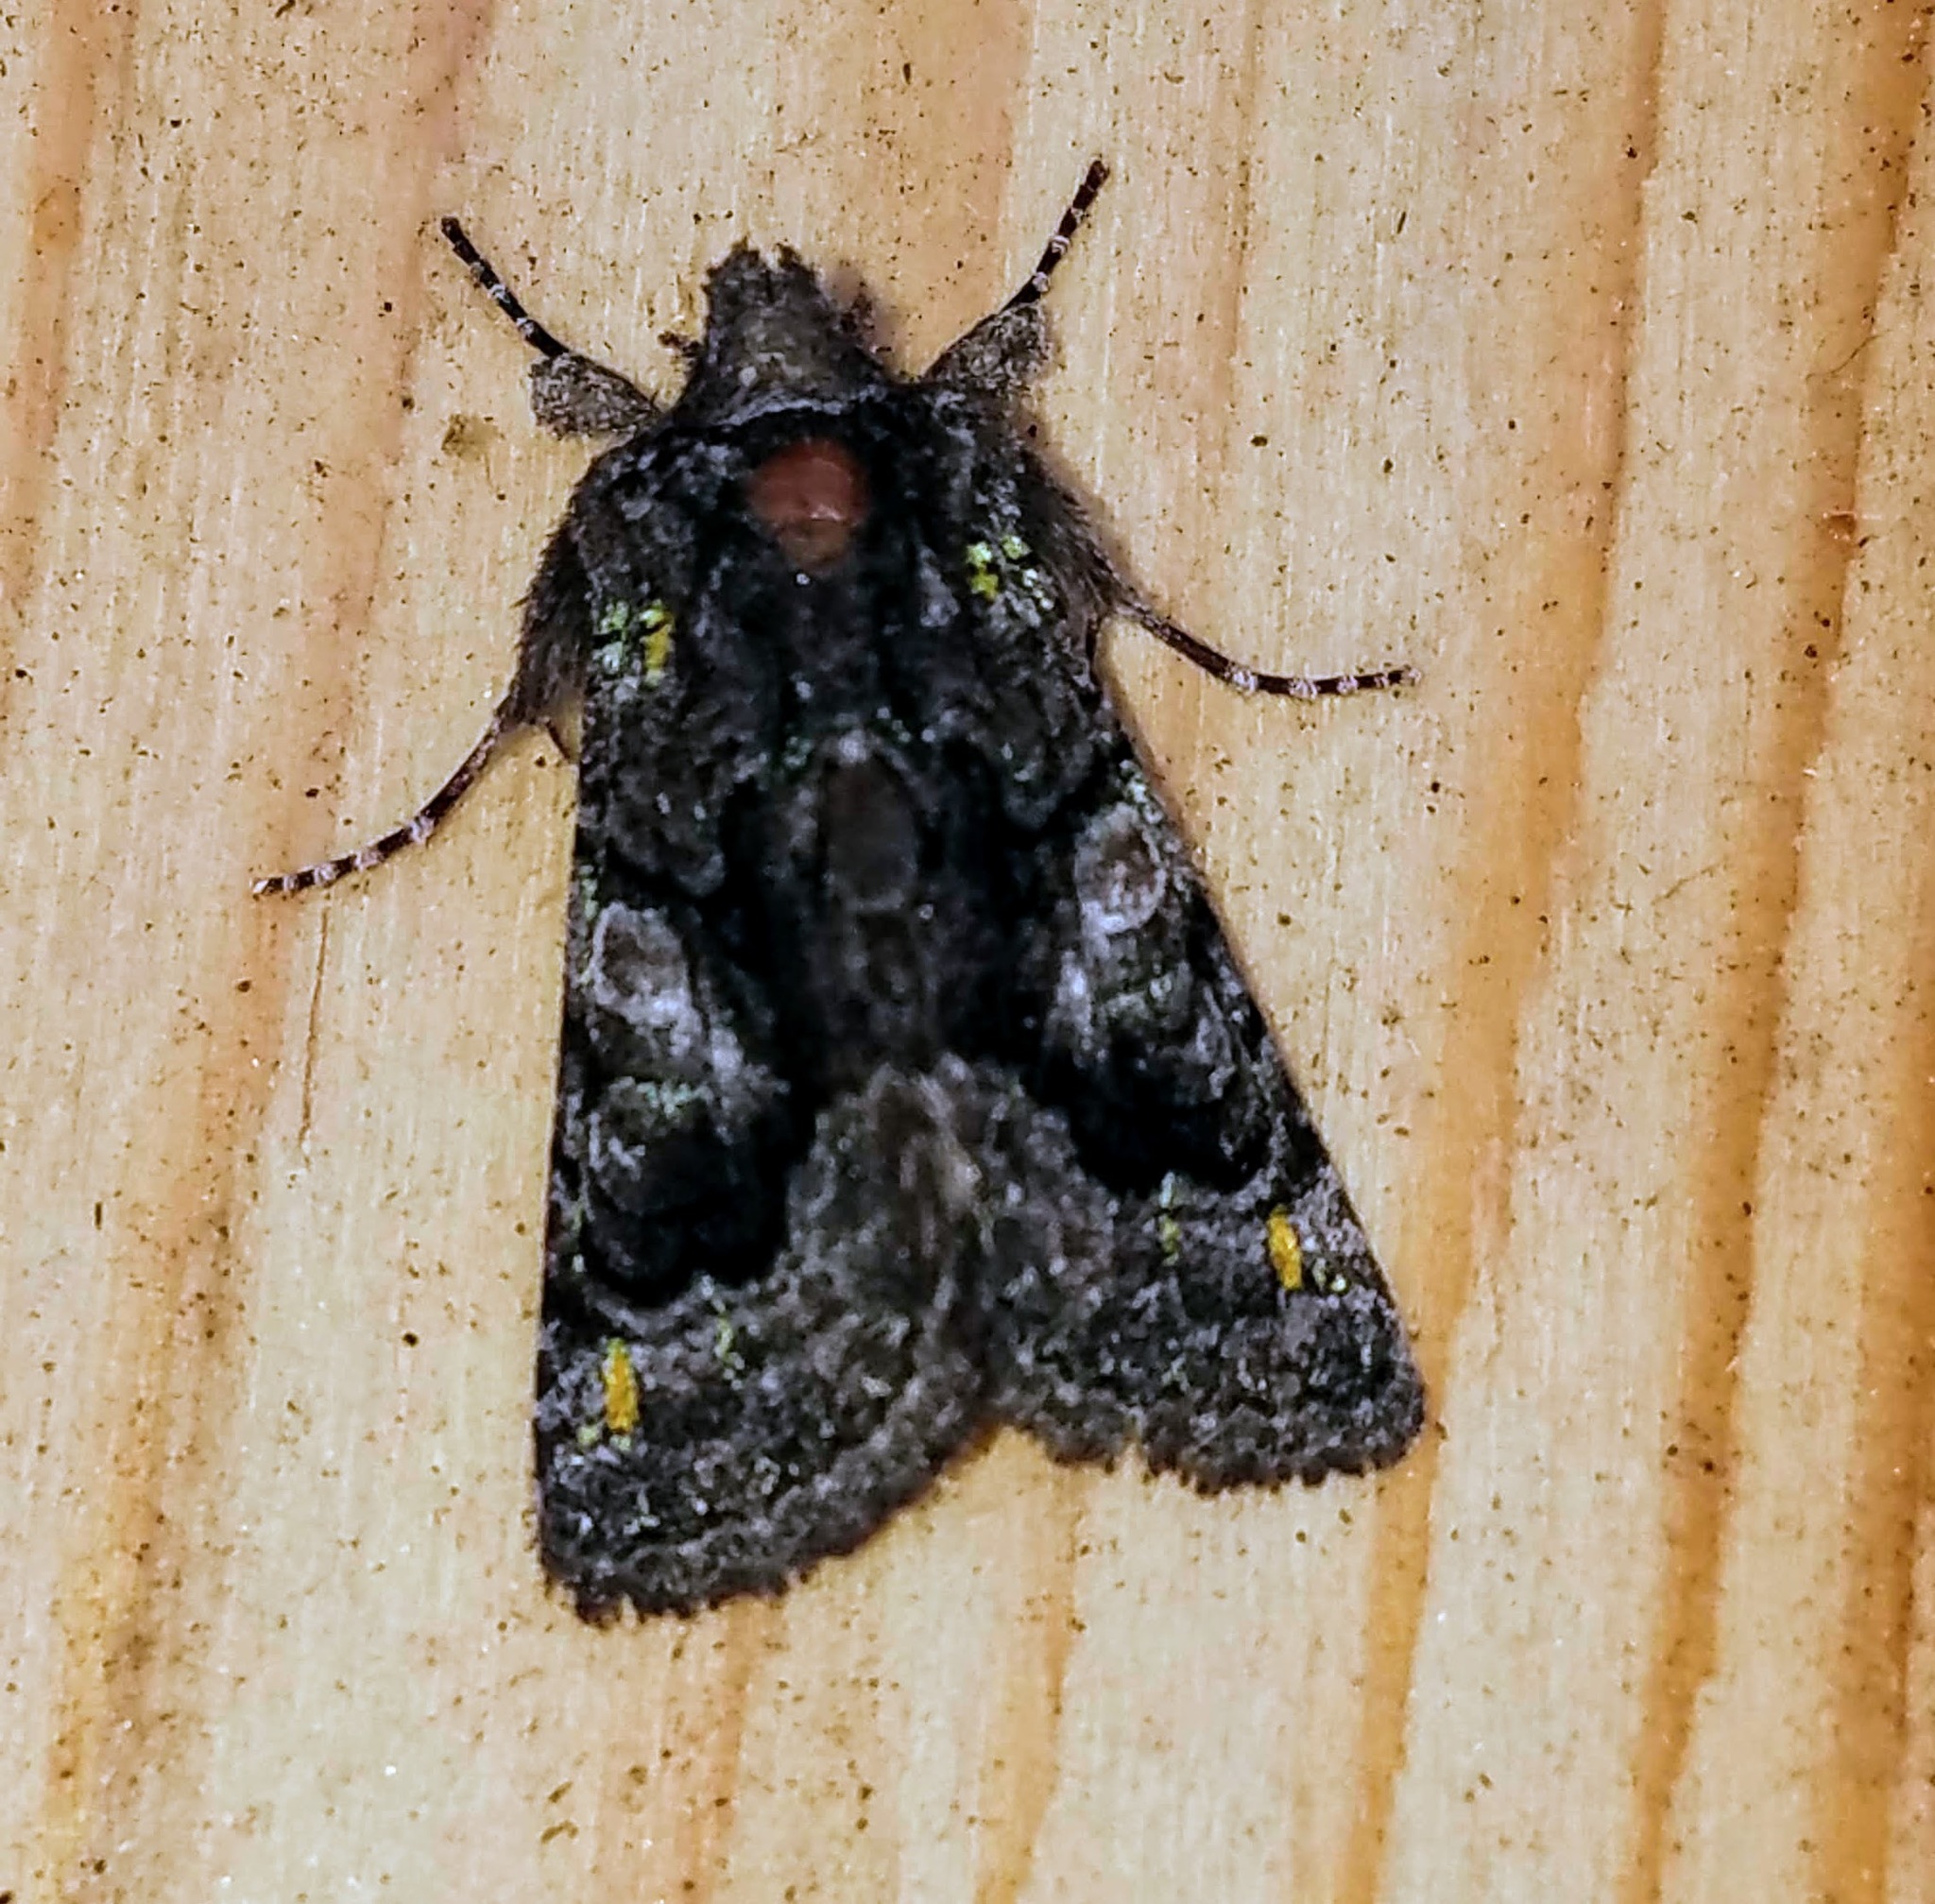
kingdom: Animalia
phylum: Arthropoda
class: Insecta
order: Lepidoptera
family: Noctuidae
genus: Behrensia
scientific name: Behrensia conchiformis
